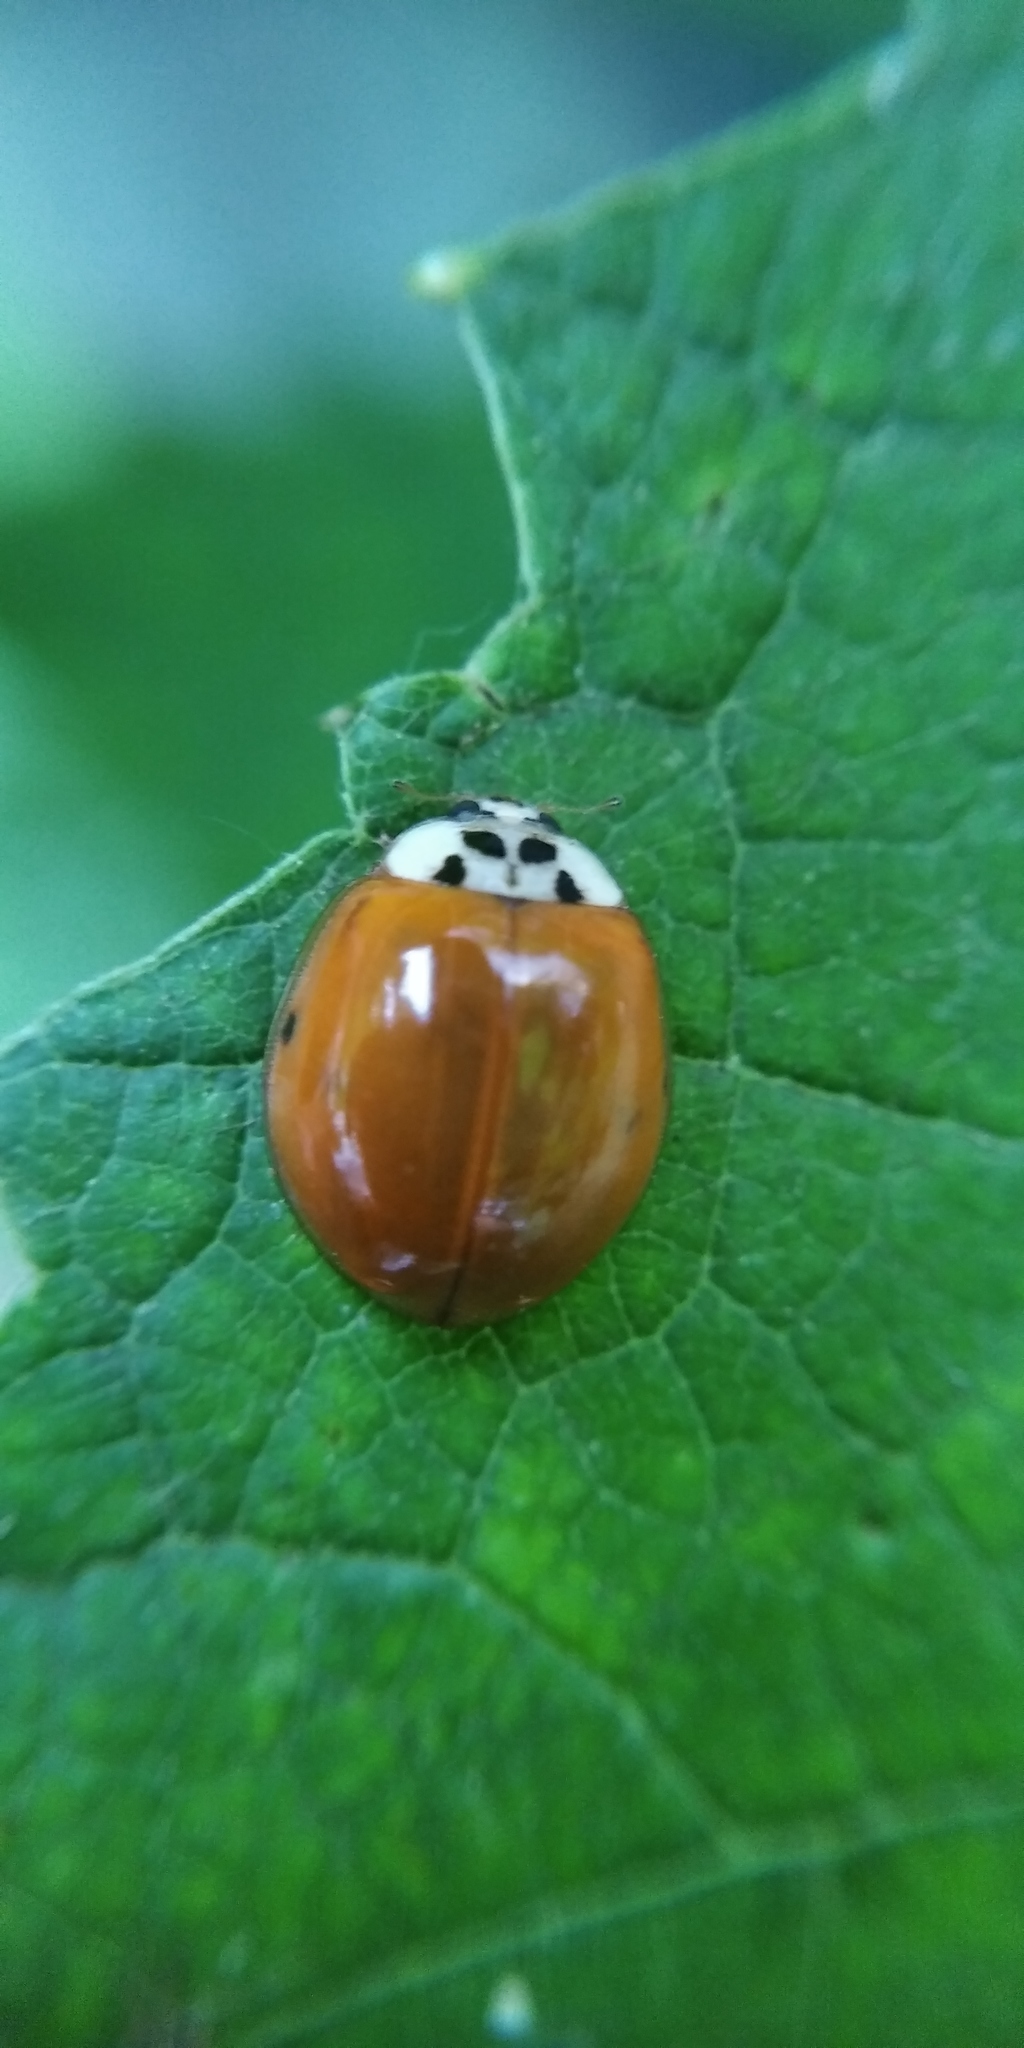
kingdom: Animalia
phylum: Arthropoda
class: Insecta
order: Coleoptera
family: Coccinellidae
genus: Harmonia
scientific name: Harmonia axyridis
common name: Harlequin ladybird
